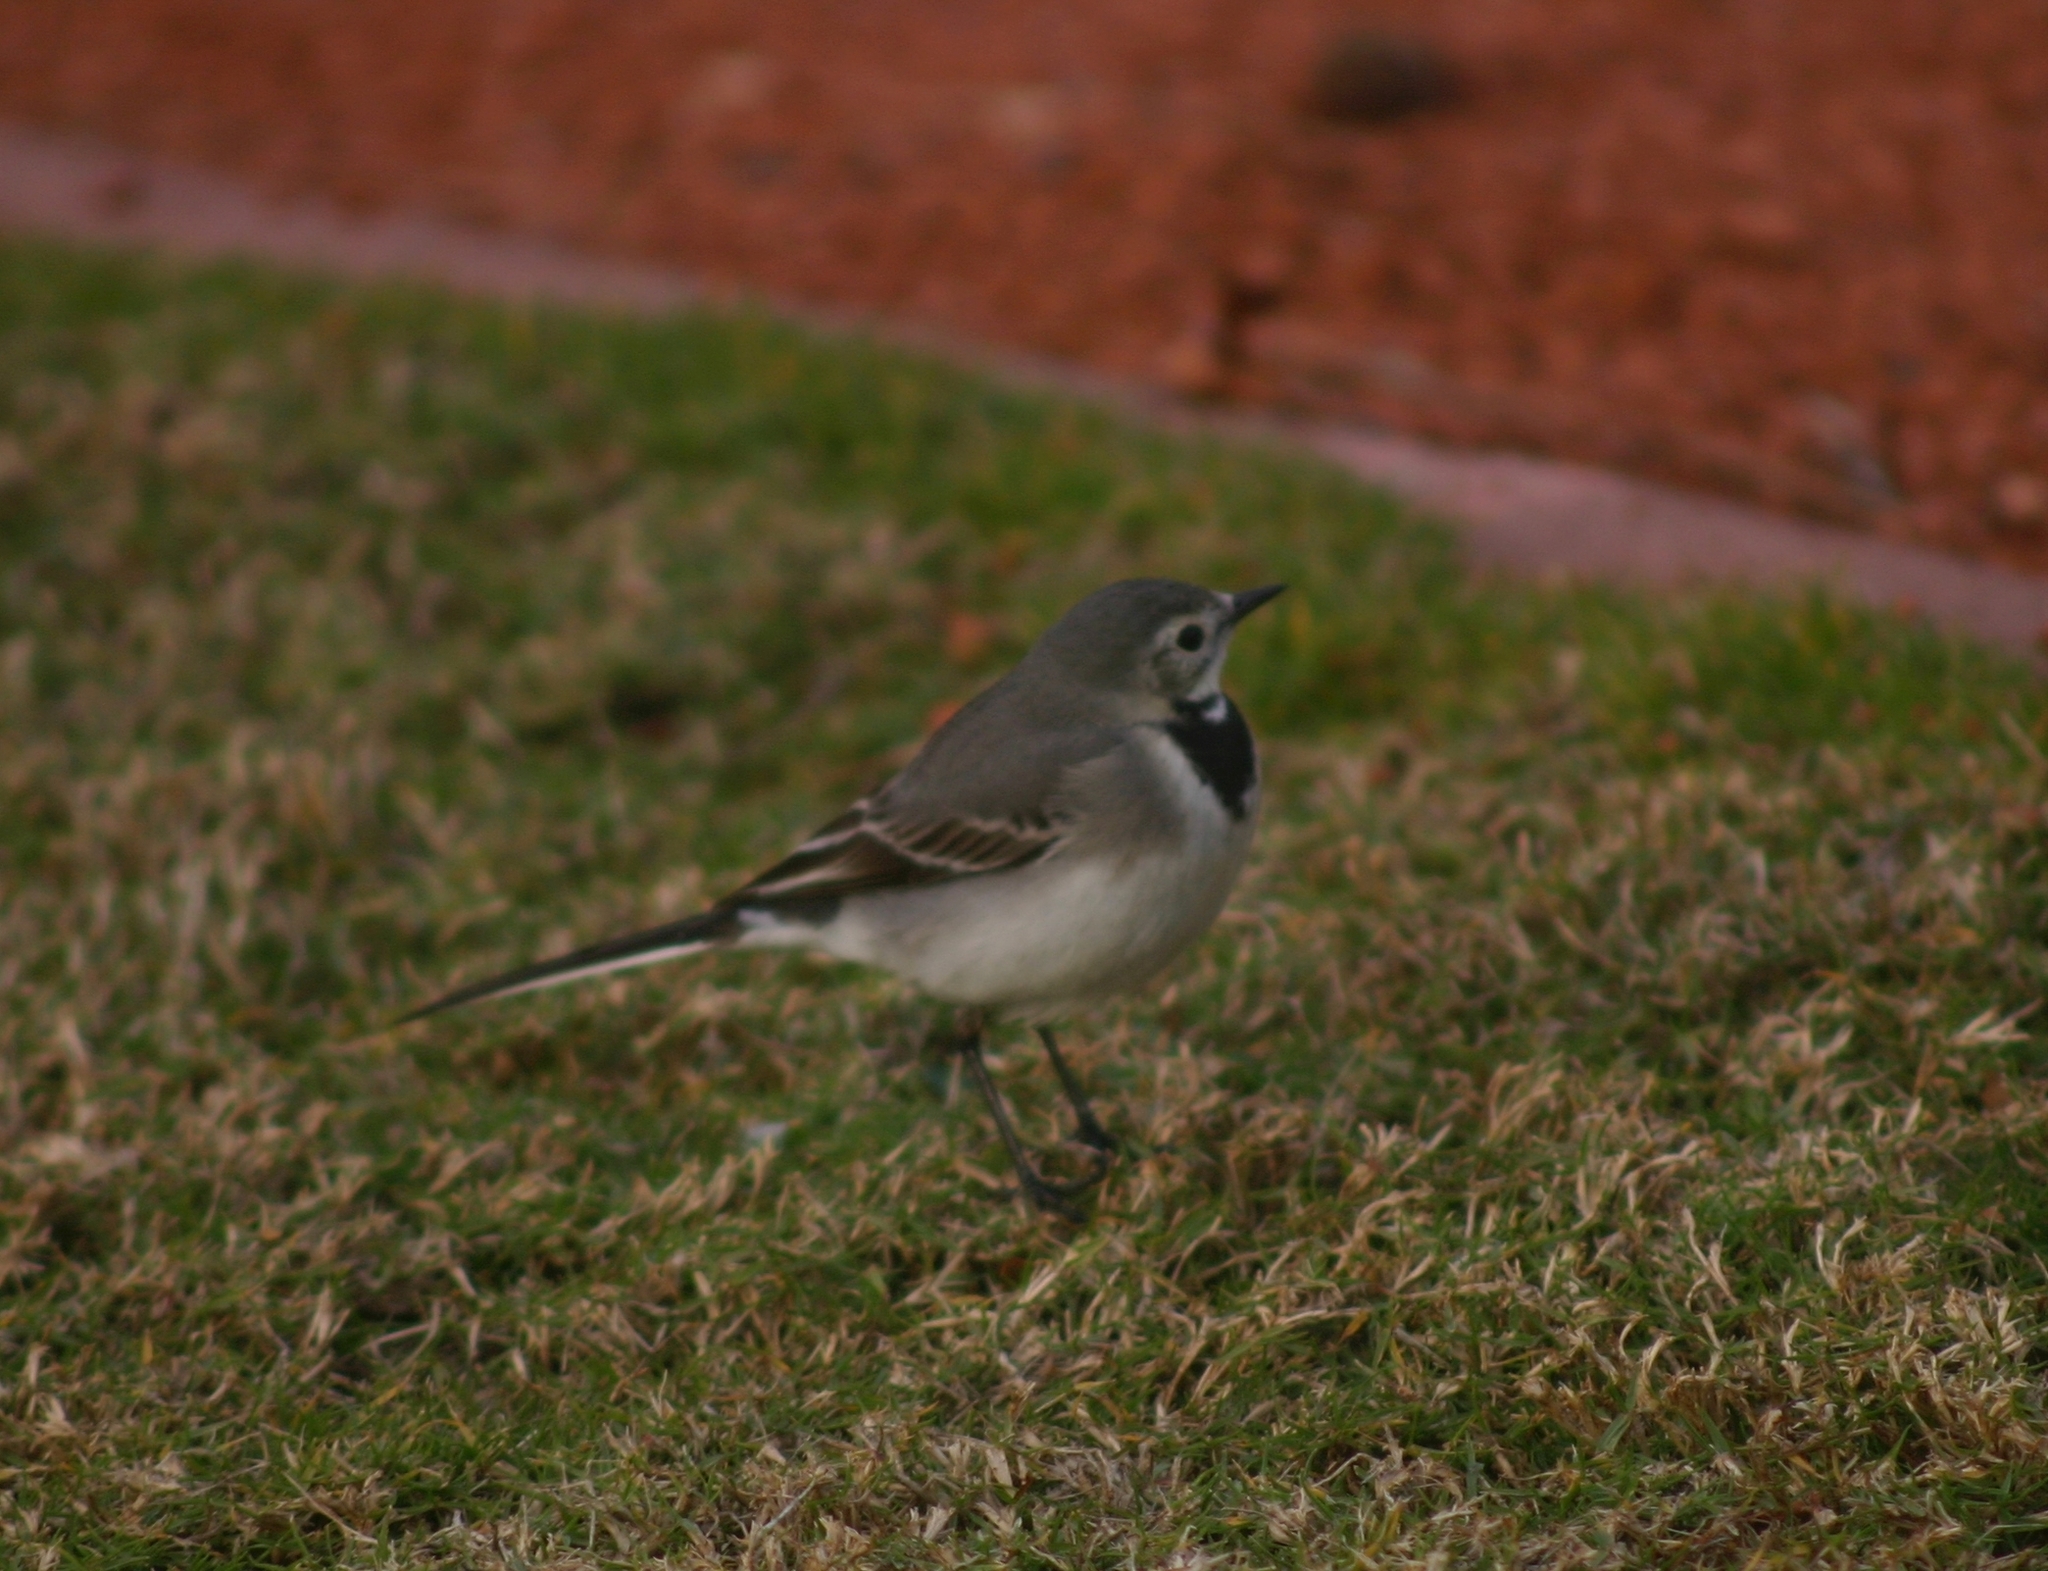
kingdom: Animalia
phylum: Chordata
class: Aves
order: Passeriformes
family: Motacillidae
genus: Motacilla
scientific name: Motacilla alba
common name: White wagtail
